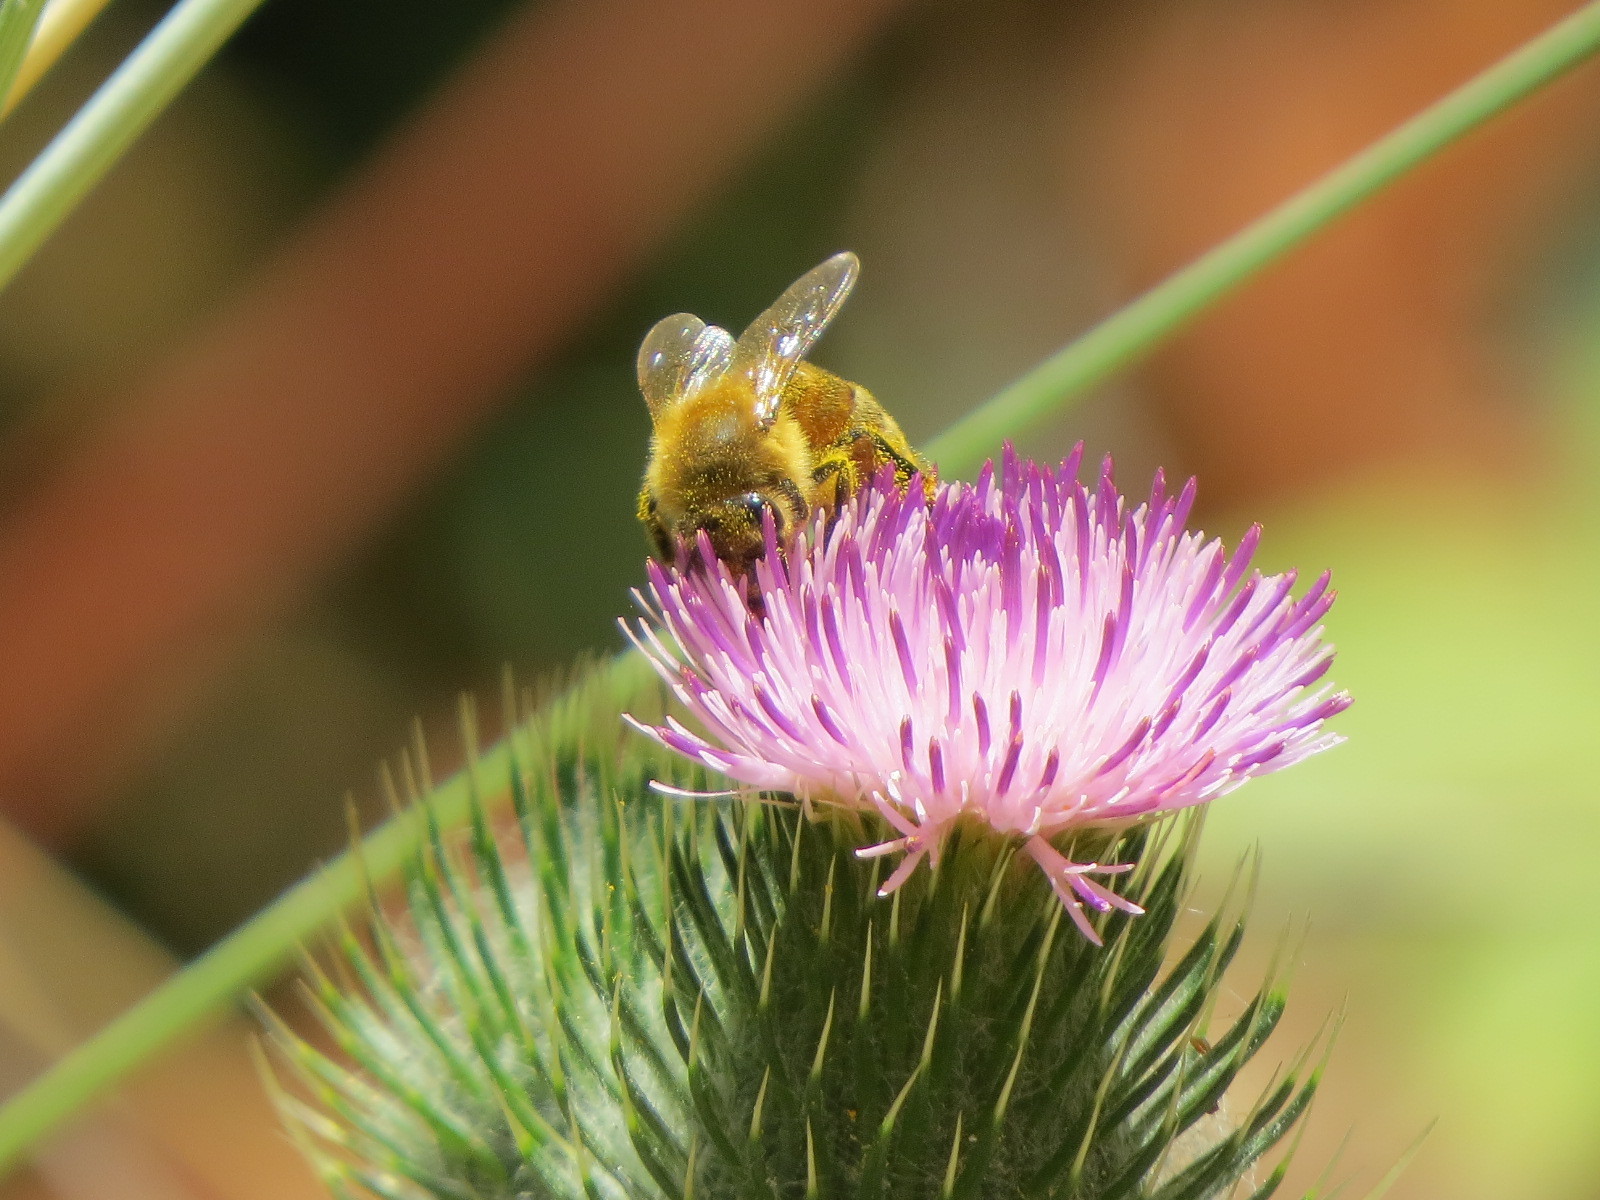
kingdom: Animalia
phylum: Arthropoda
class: Insecta
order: Hymenoptera
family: Apidae
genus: Apis
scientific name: Apis mellifera
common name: Honey bee
